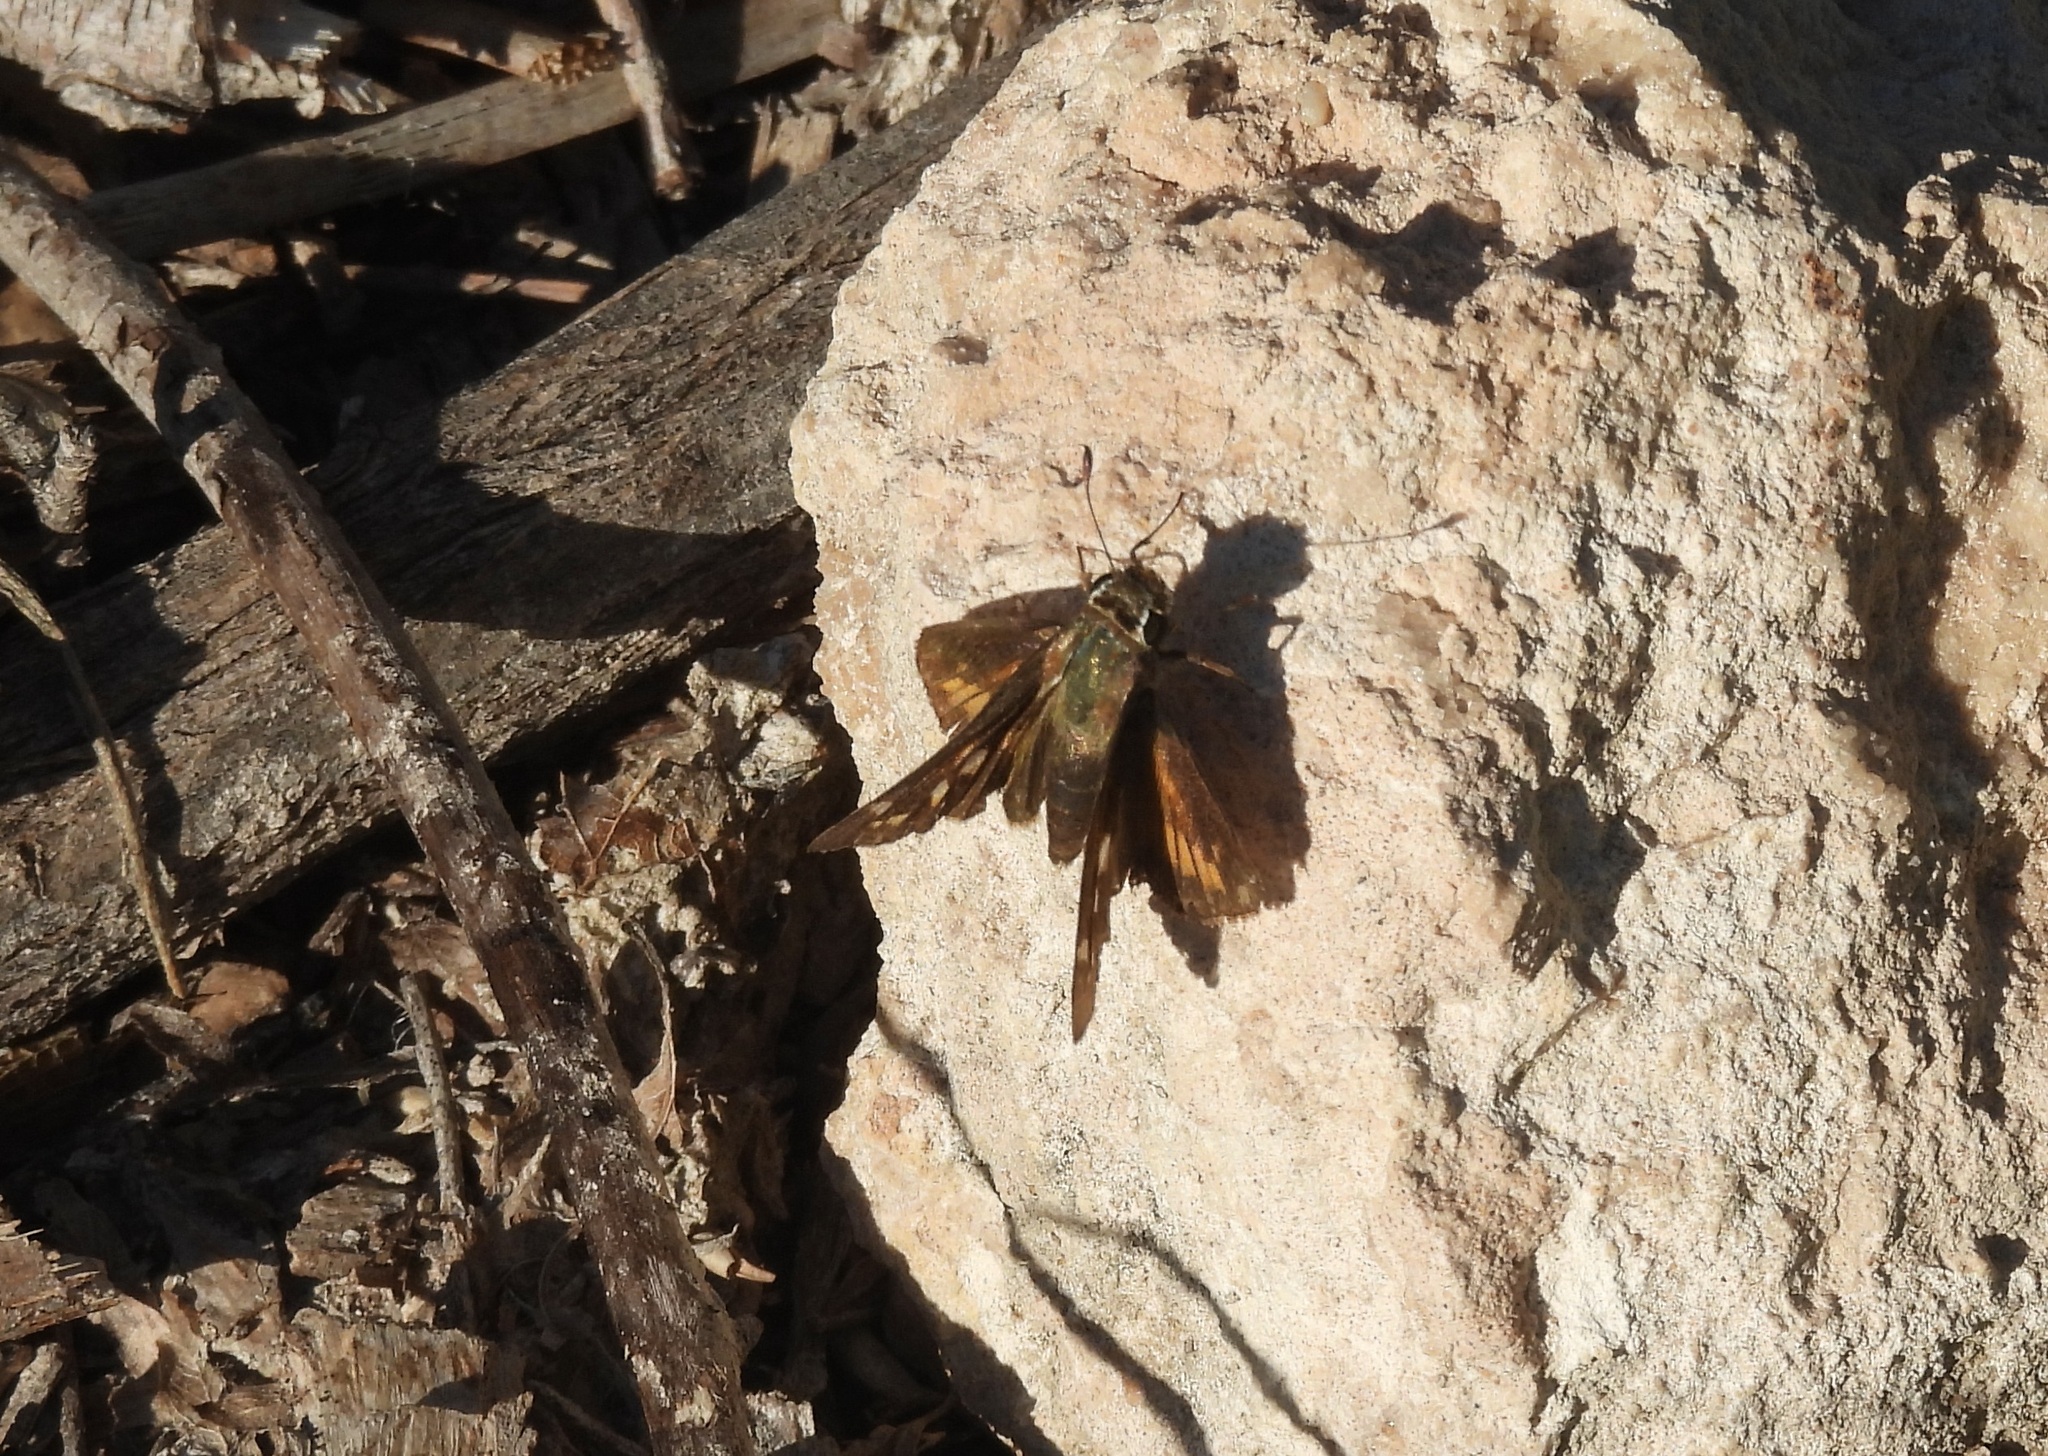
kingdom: Animalia
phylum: Arthropoda
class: Insecta
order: Lepidoptera
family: Hesperiidae
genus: Atalopedes
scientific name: Atalopedes
